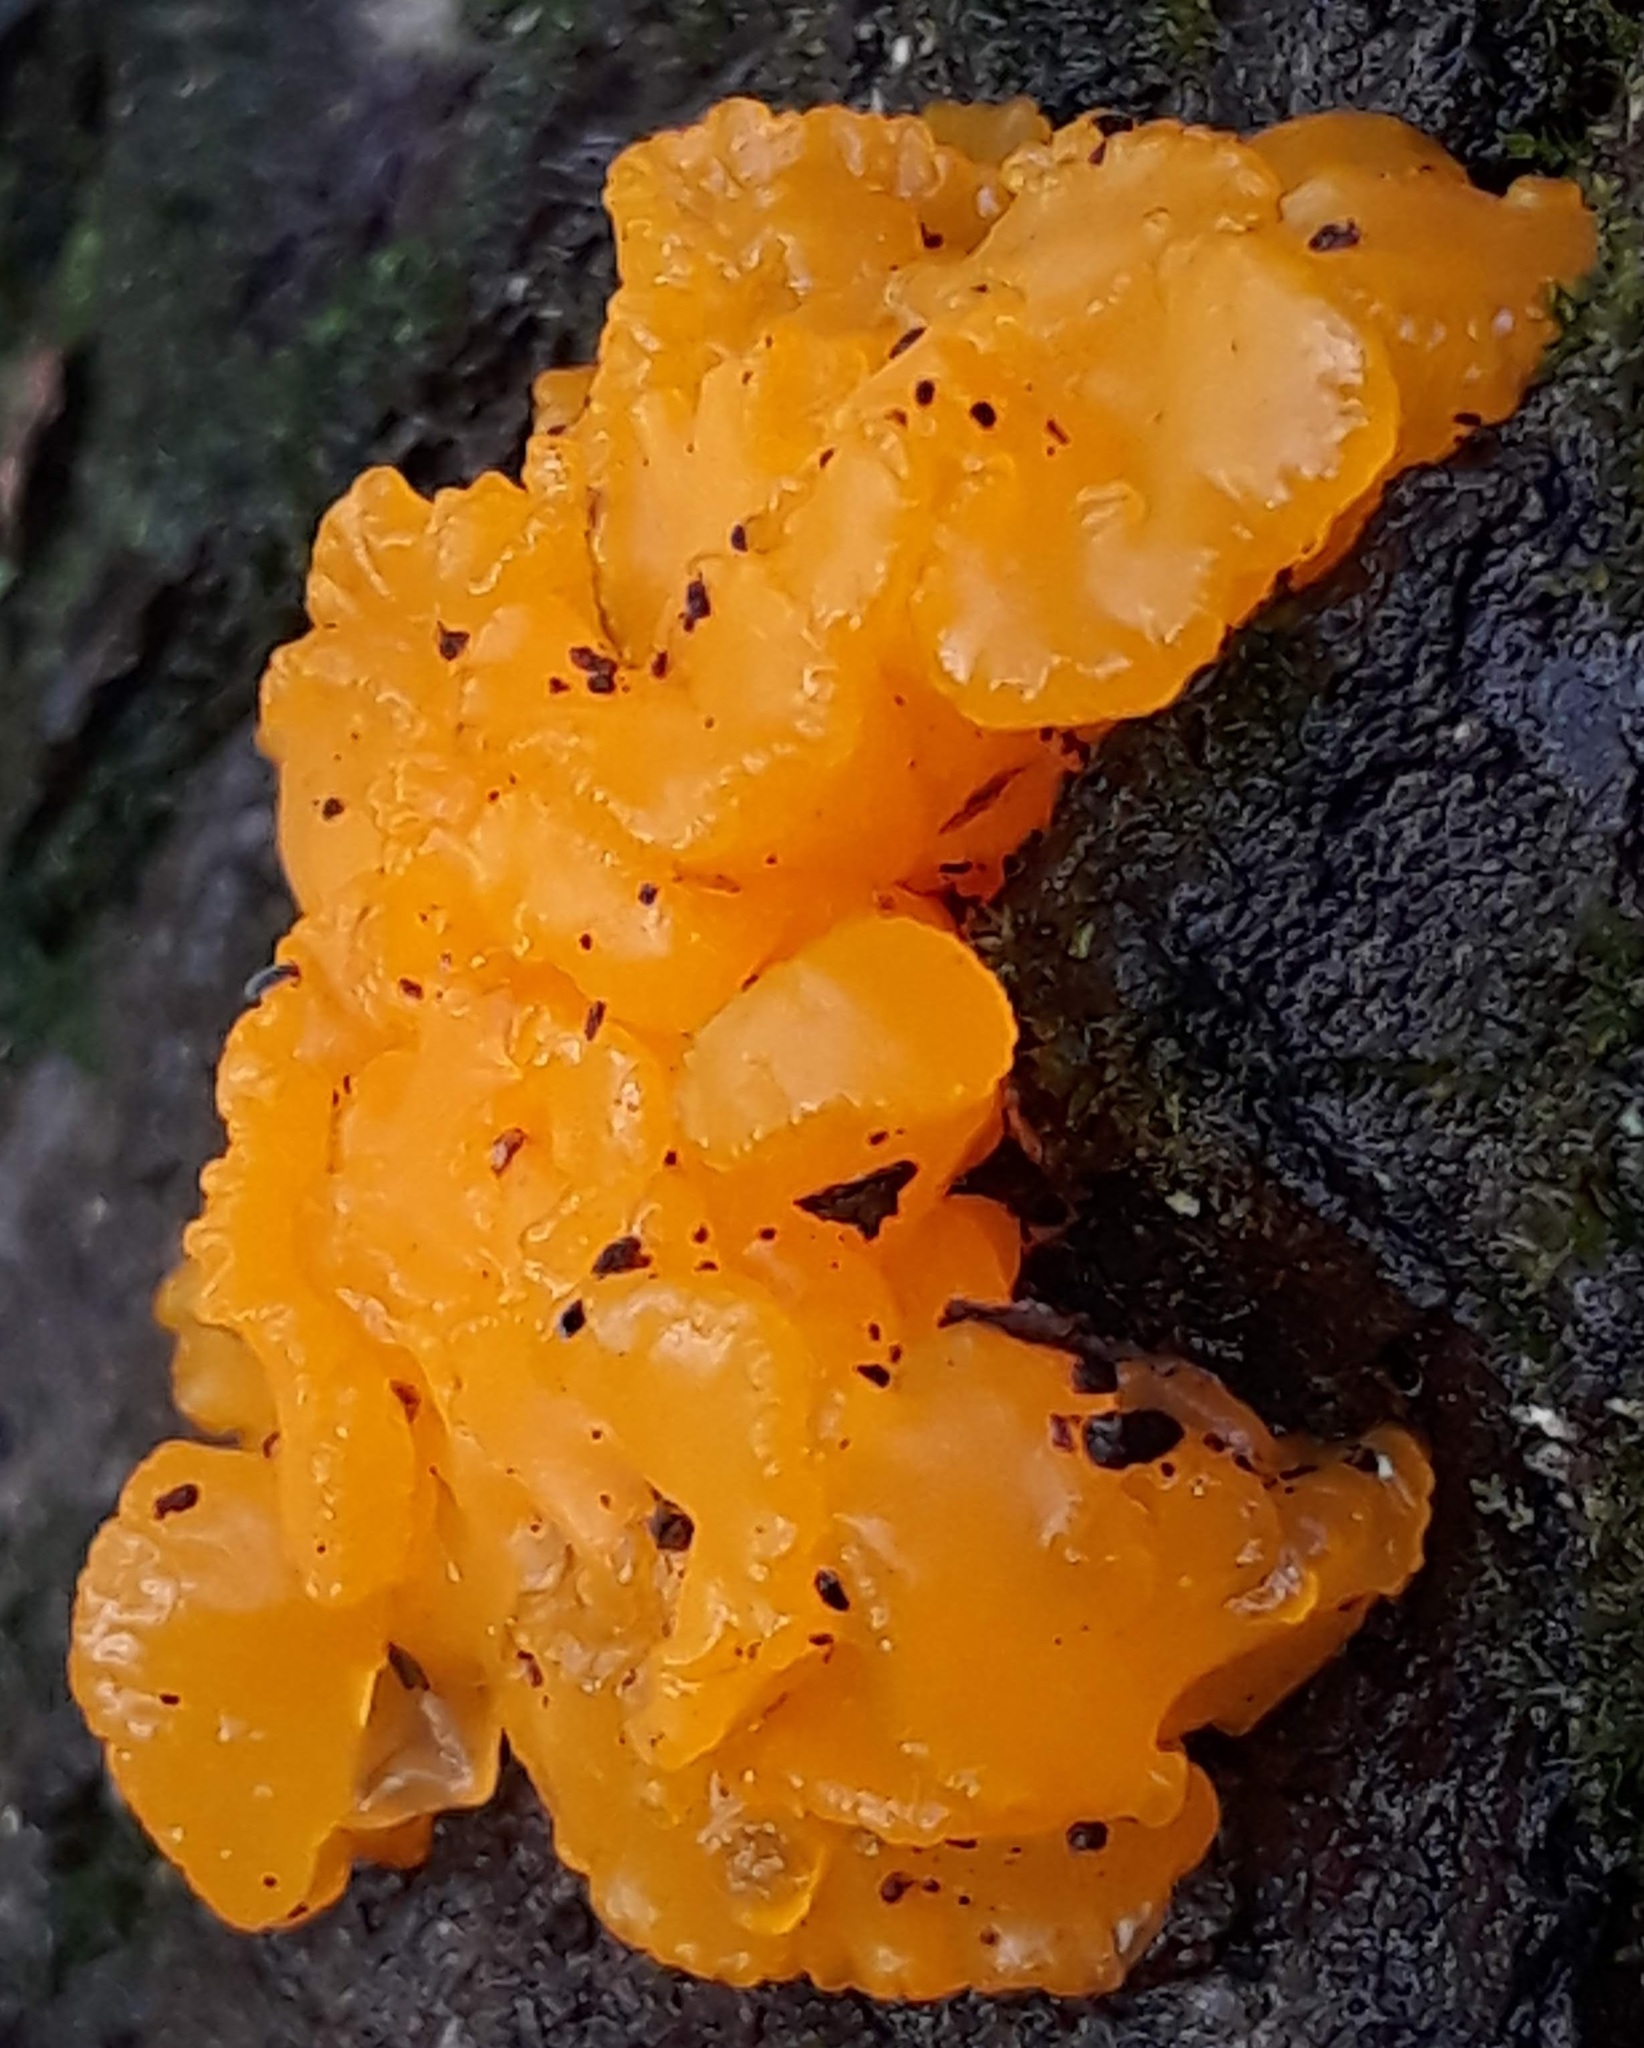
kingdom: Fungi
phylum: Basidiomycota
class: Dacrymycetes
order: Dacrymycetales
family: Dacrymycetaceae
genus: Dacrymyces
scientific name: Dacrymyces chrysospermus
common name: Orange jelly spot
